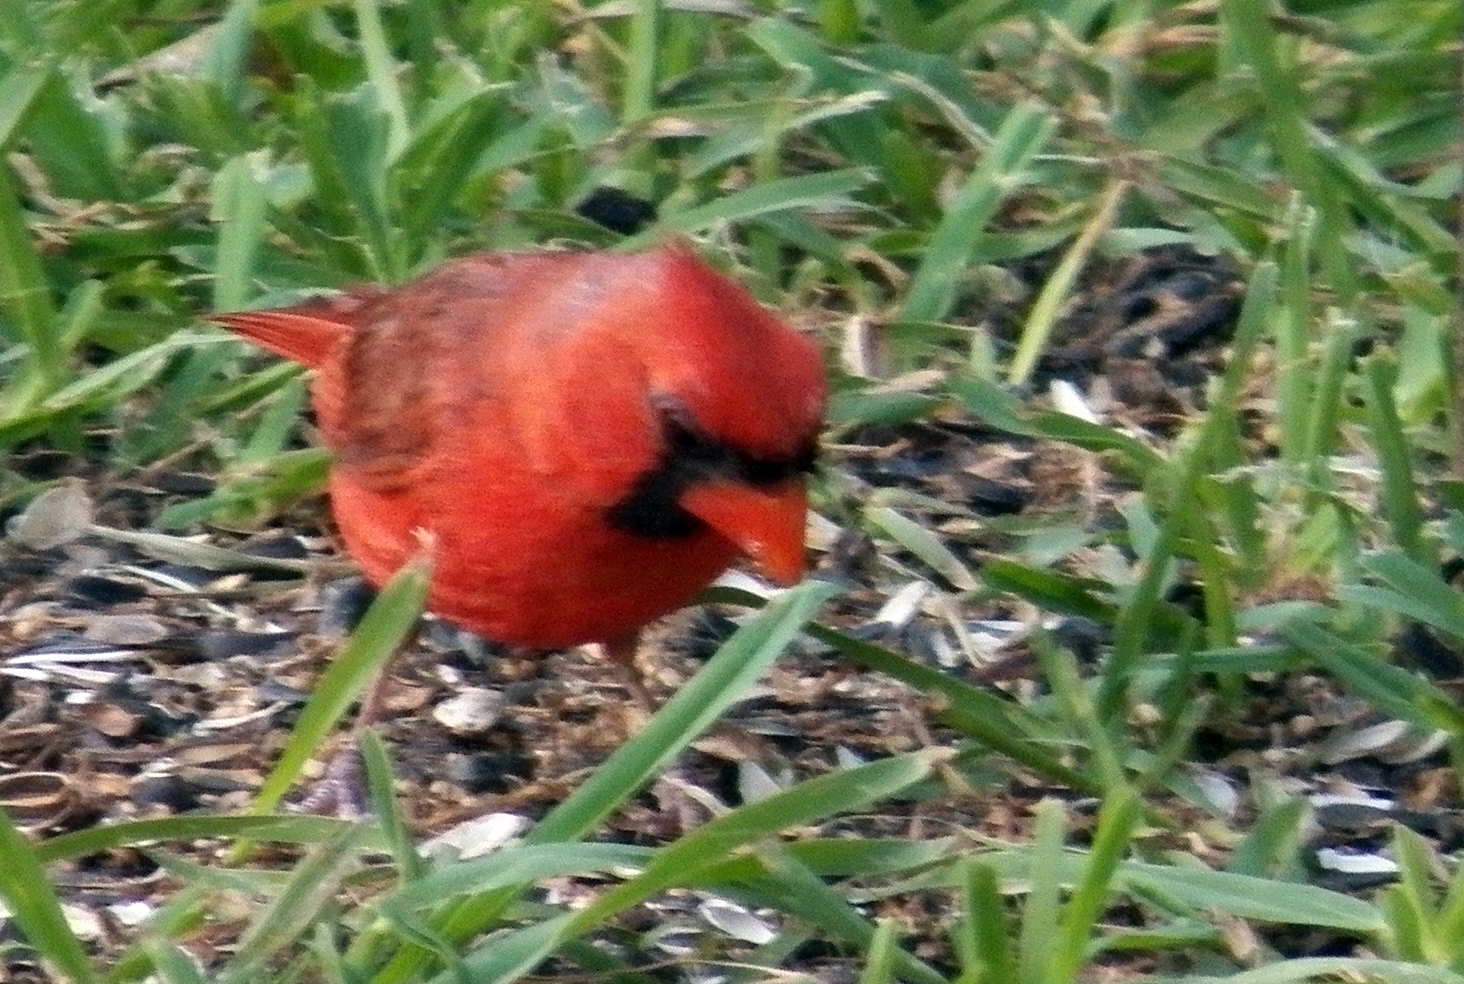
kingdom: Animalia
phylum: Chordata
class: Aves
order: Passeriformes
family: Cardinalidae
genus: Cardinalis
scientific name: Cardinalis cardinalis
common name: Northern cardinal
